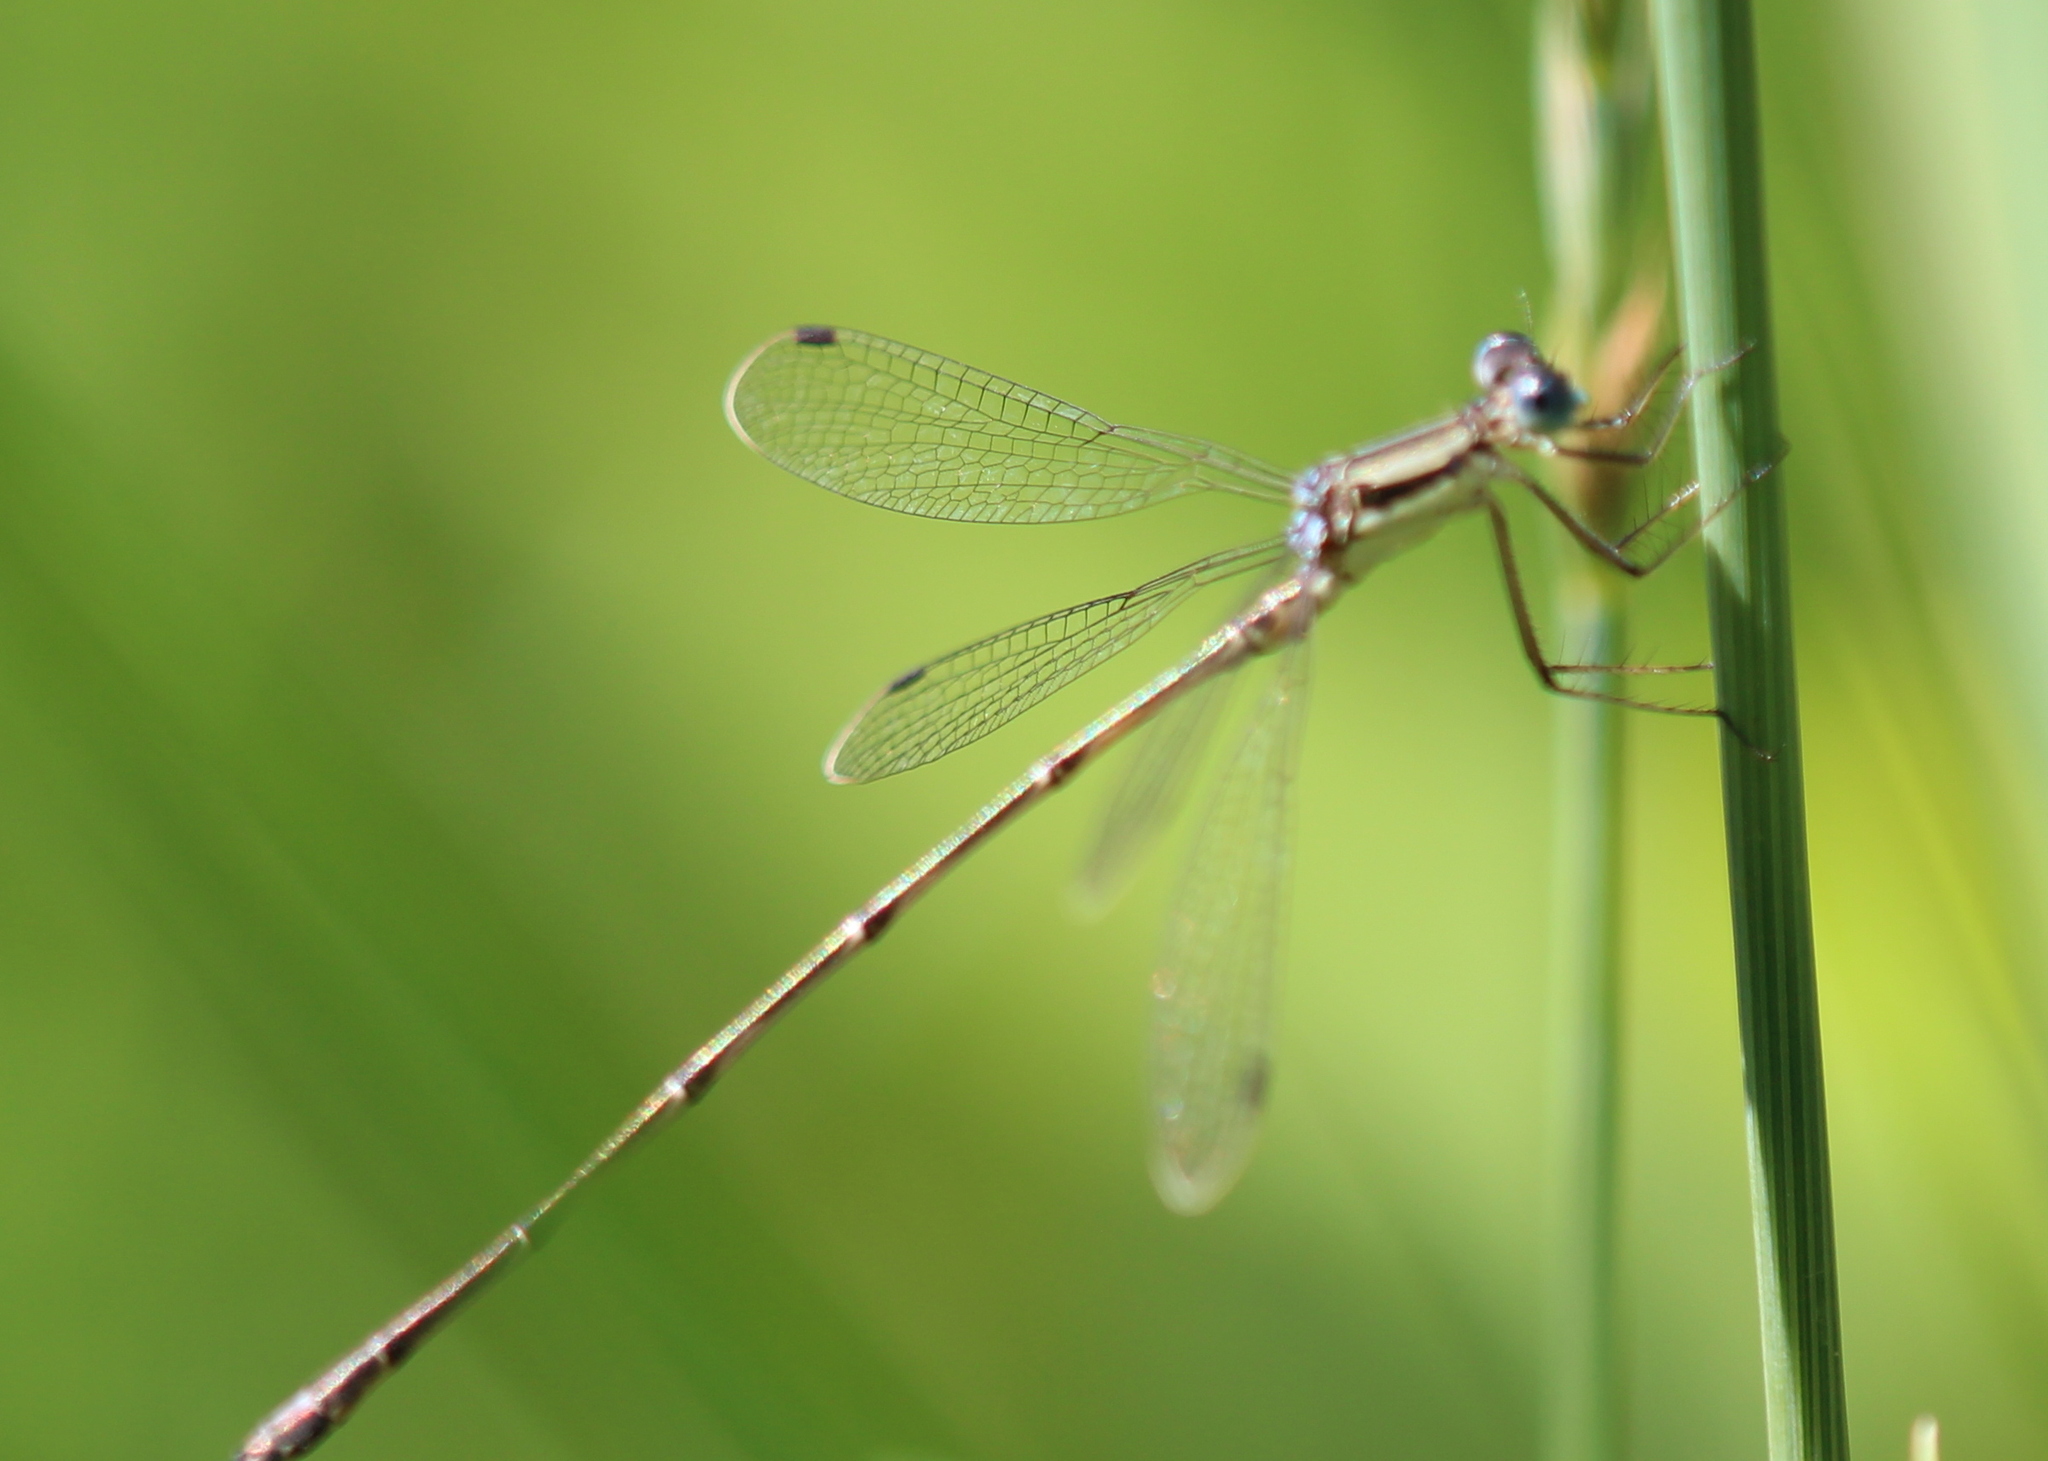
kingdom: Animalia
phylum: Arthropoda
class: Insecta
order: Odonata
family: Lestidae
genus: Lestes
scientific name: Lestes rectangularis
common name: Slender spreadwing
